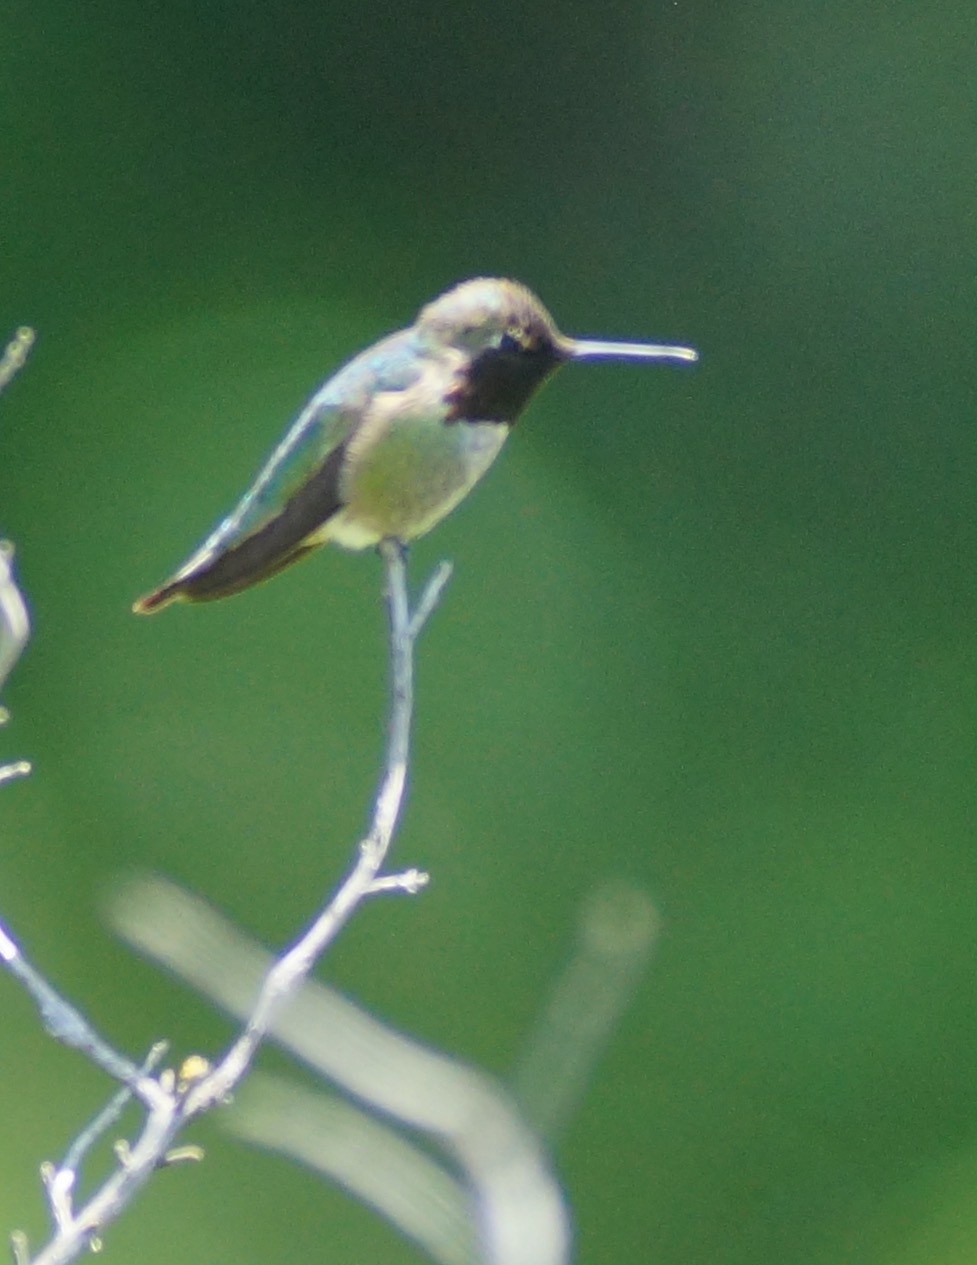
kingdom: Animalia
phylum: Chordata
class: Aves
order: Apodiformes
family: Trochilidae
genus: Calypte
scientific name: Calypte anna
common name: Anna's hummingbird
